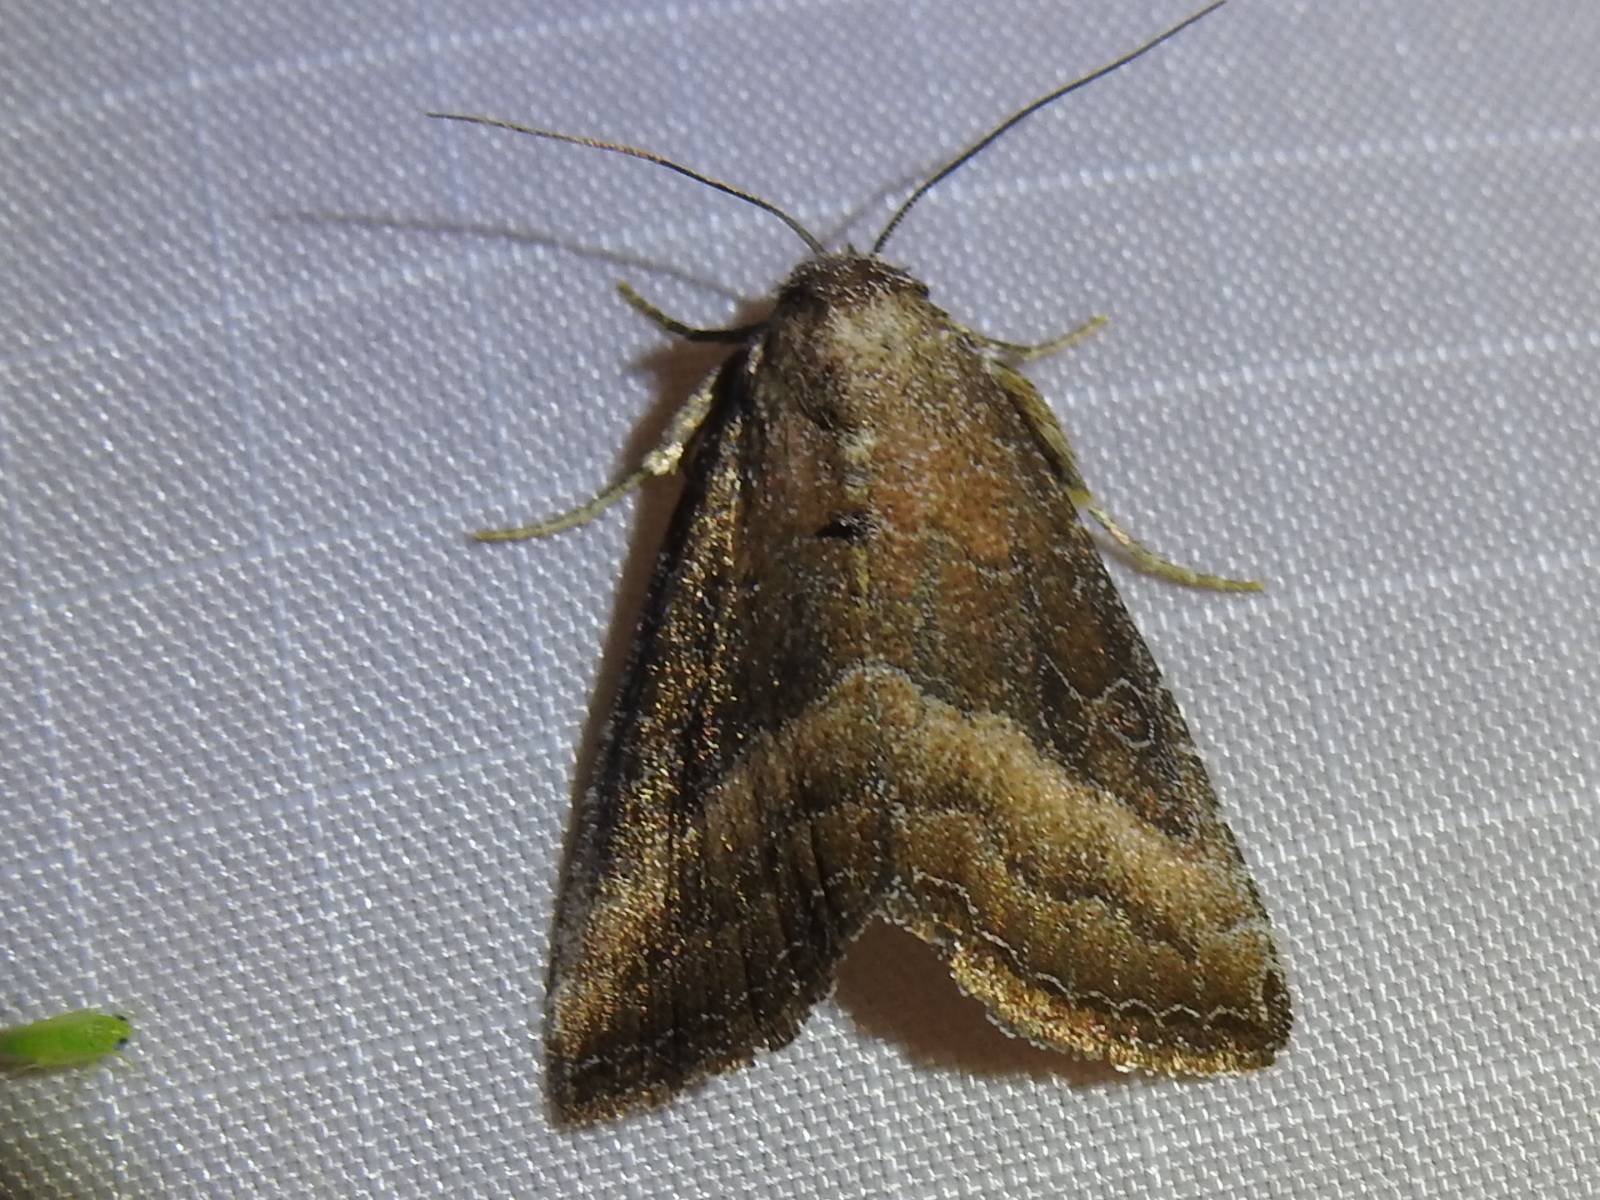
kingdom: Animalia
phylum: Arthropoda
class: Insecta
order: Lepidoptera
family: Noctuidae
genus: Ogdoconta
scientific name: Ogdoconta cinereola
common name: Common pinkband
